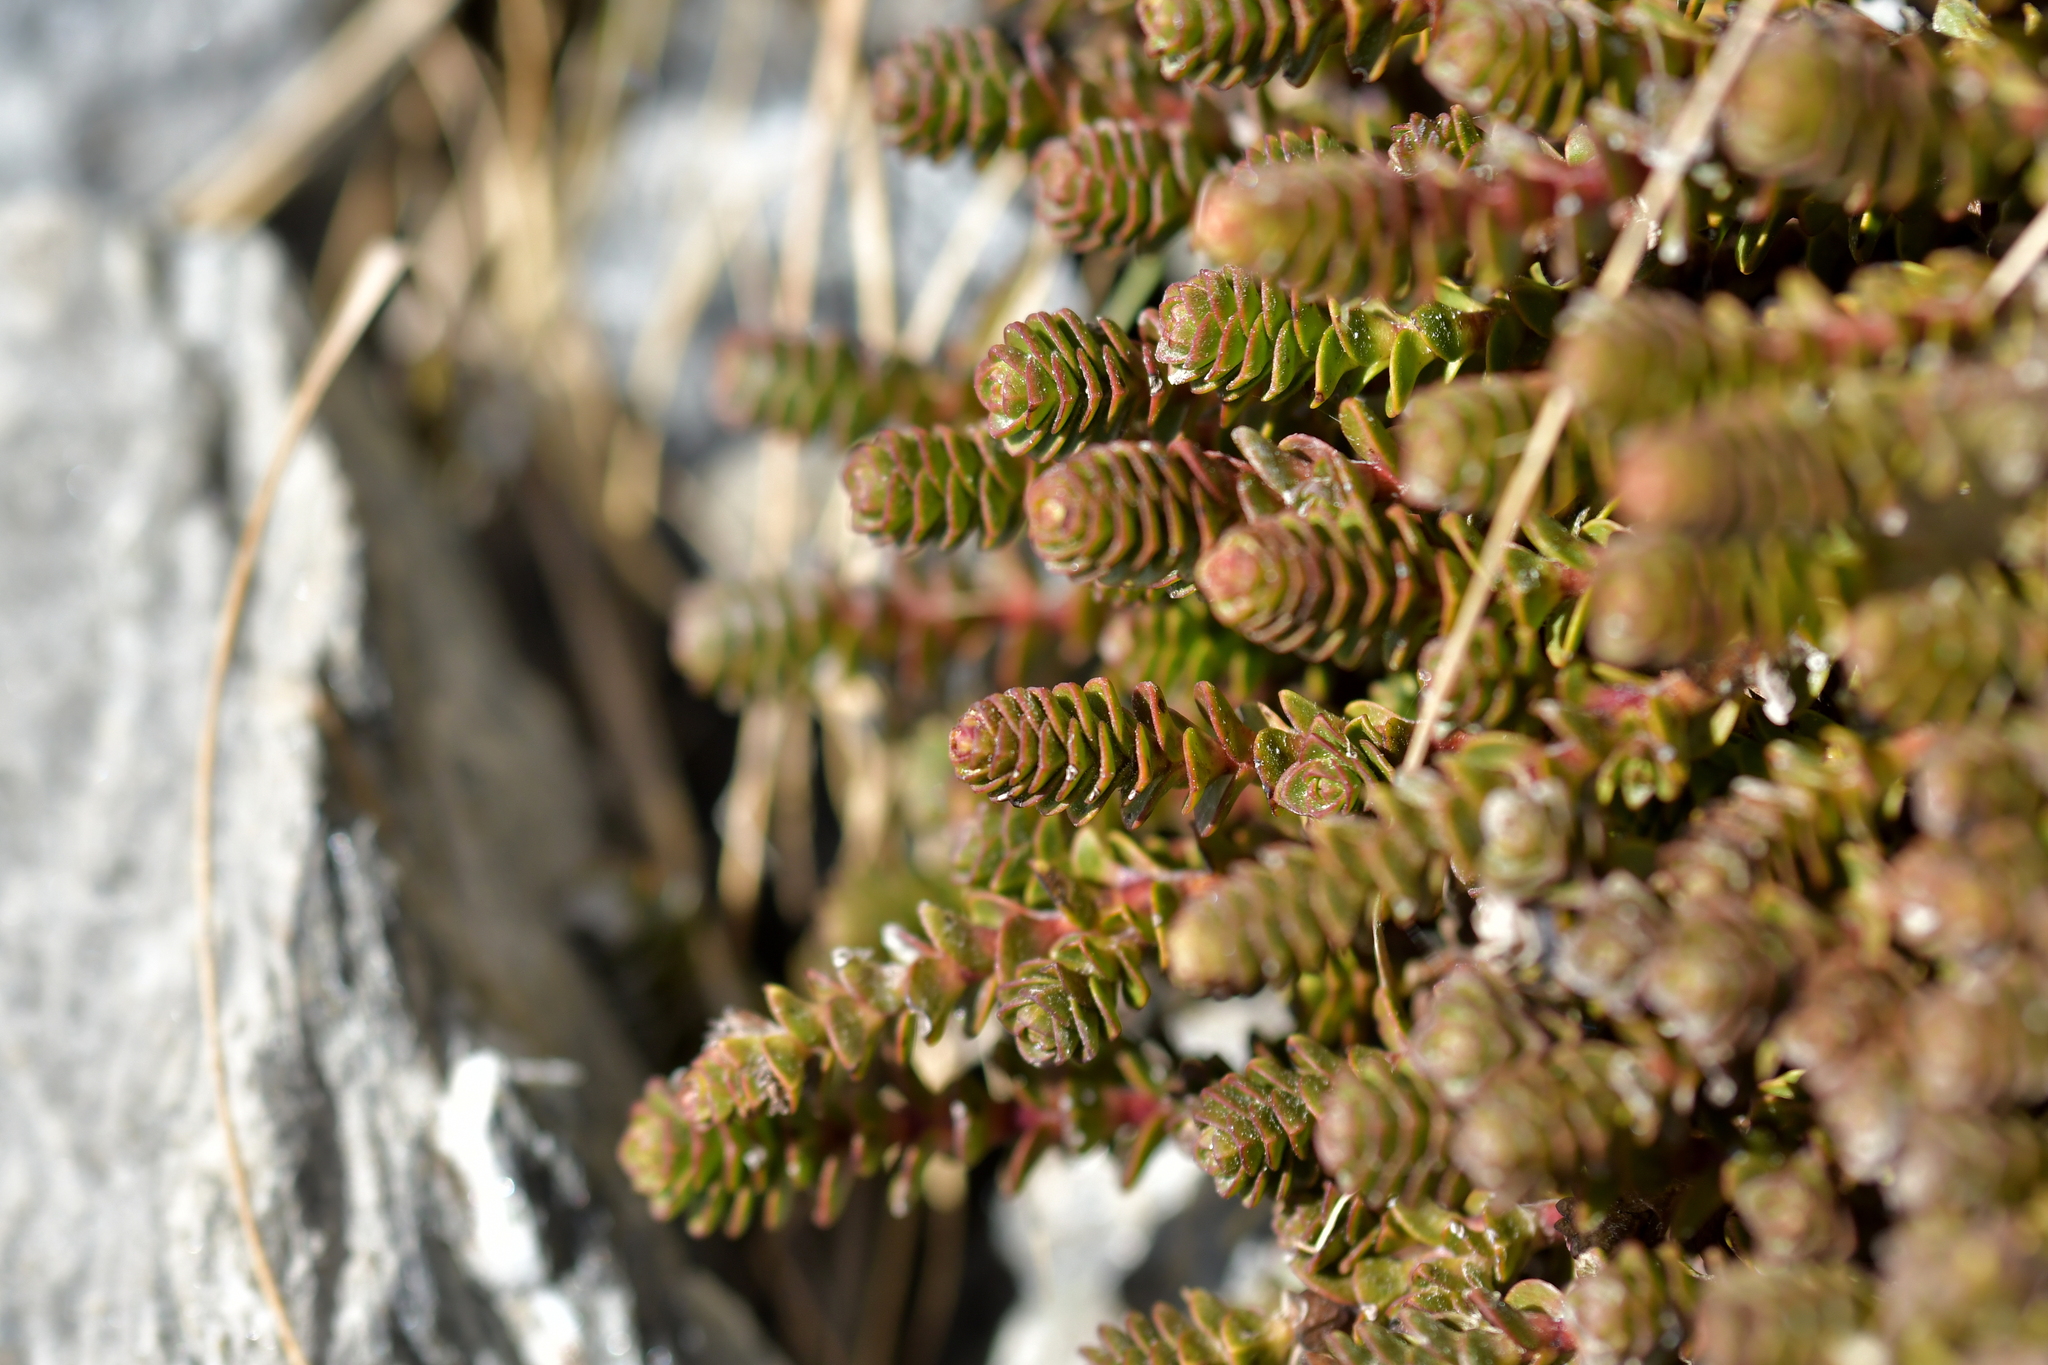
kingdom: Plantae
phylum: Tracheophyta
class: Magnoliopsida
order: Lamiales
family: Plantaginaceae
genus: Veronica
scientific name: Veronica epacridea
